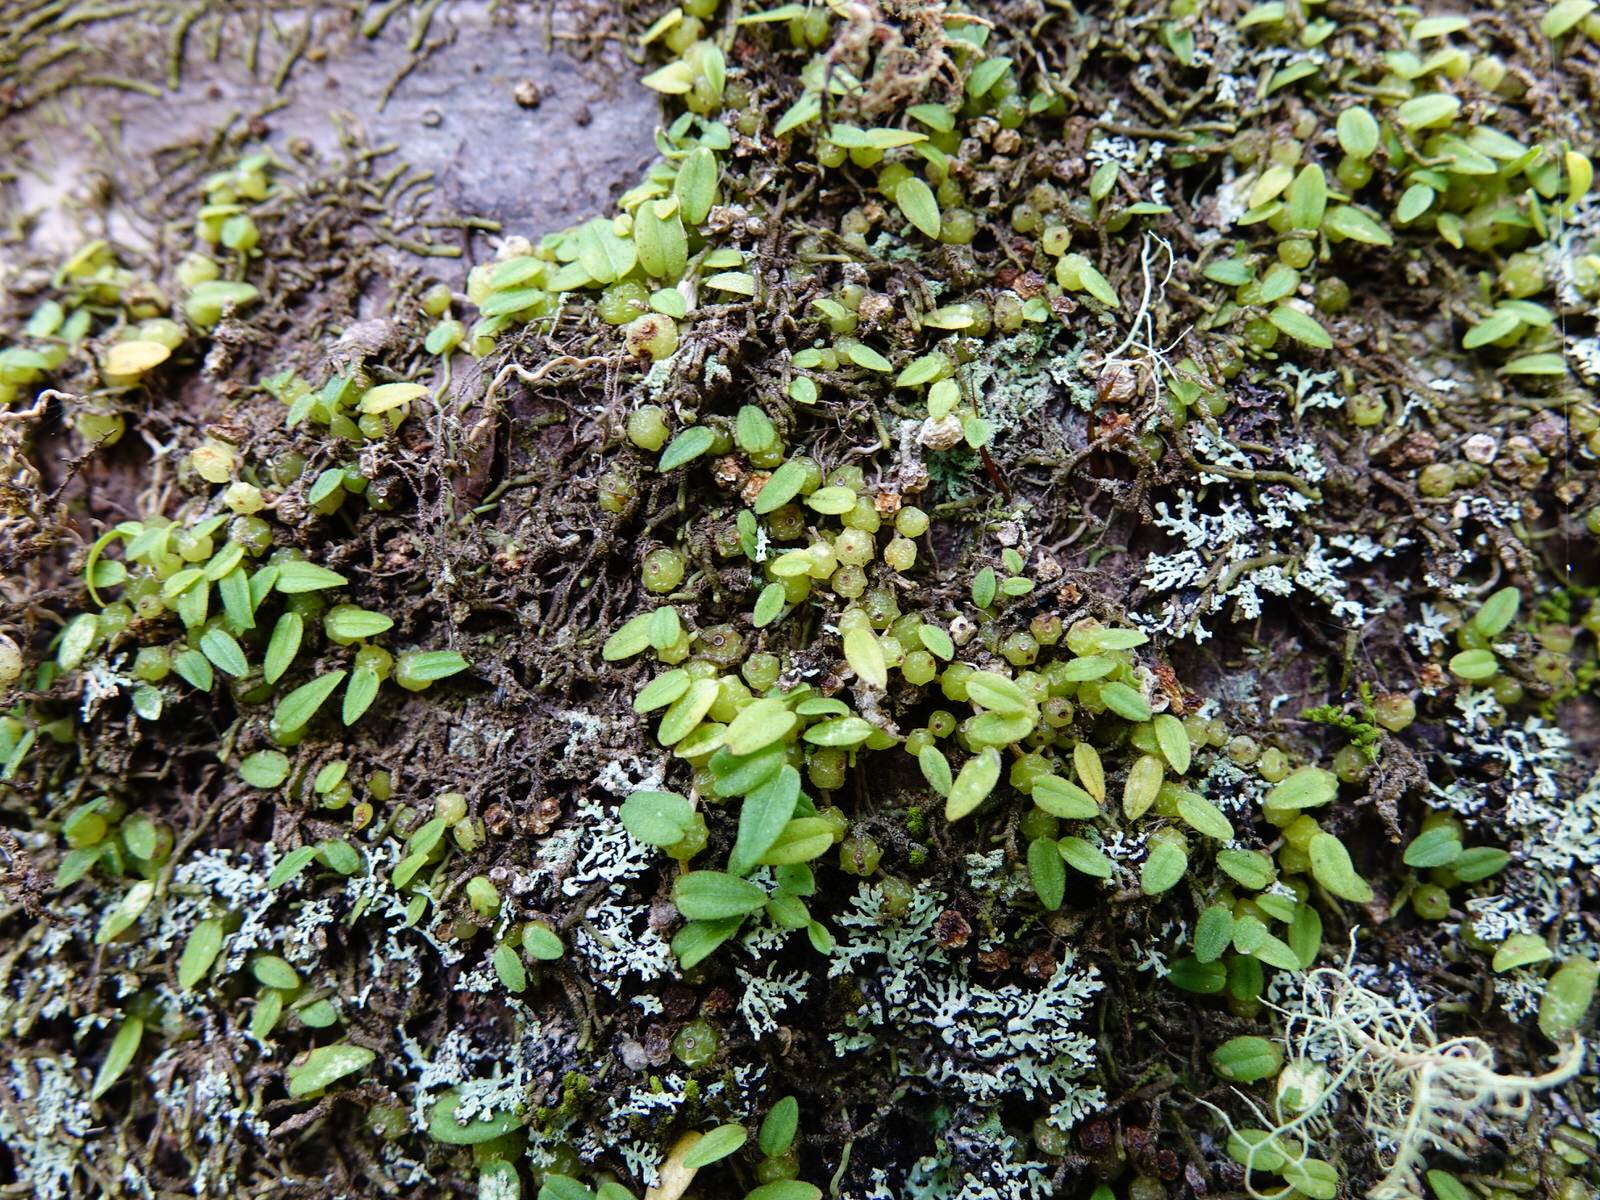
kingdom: Plantae
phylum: Tracheophyta
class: Liliopsida
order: Asparagales
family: Orchidaceae
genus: Bulbophyllum
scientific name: Bulbophyllum pygmaeum
